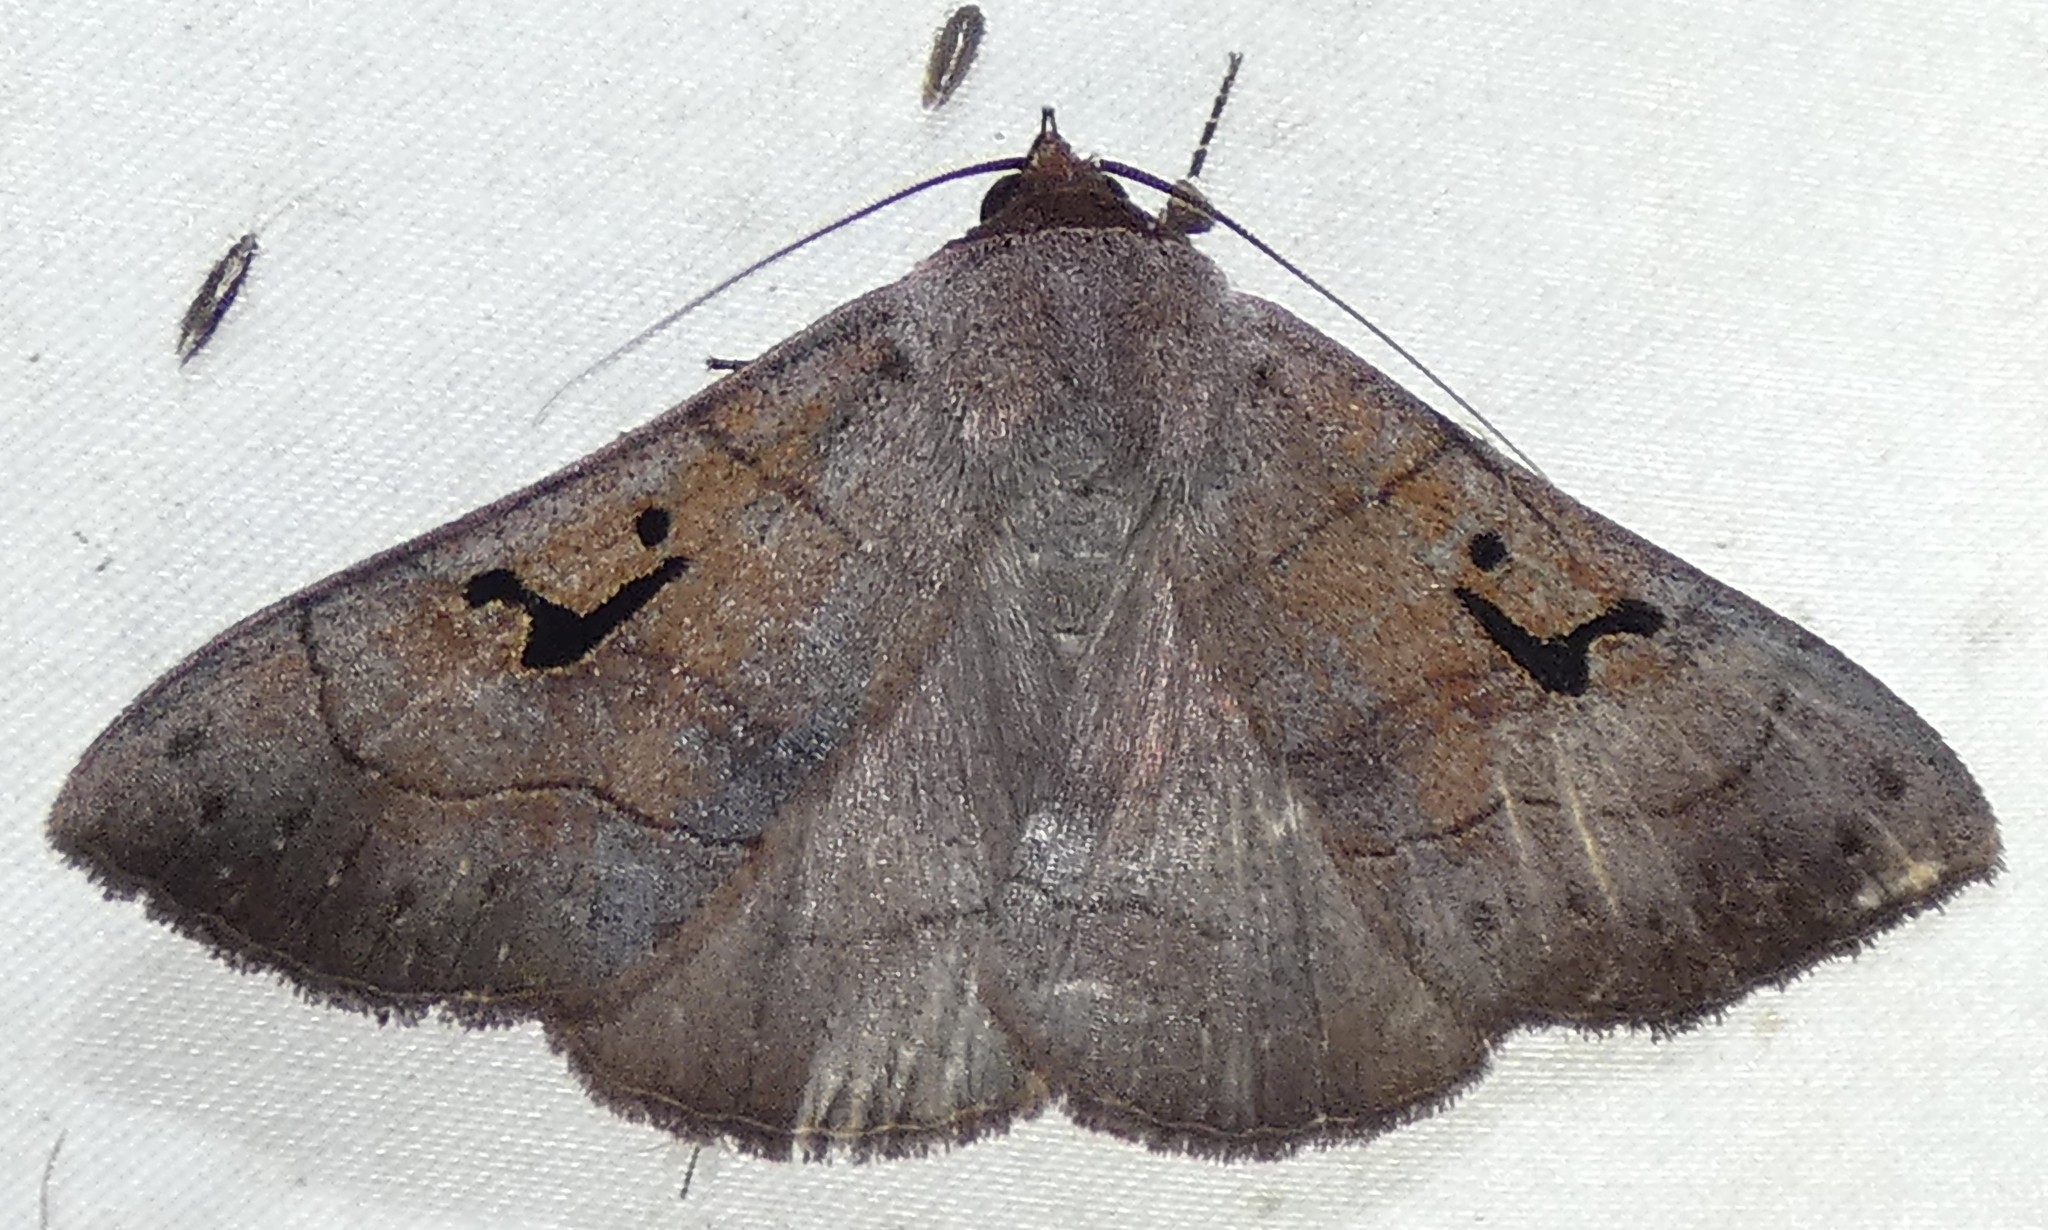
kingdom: Animalia
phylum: Arthropoda
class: Insecta
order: Lepidoptera
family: Erebidae
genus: Panopoda
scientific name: Panopoda carneicosta
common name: Brown panopoda moth
